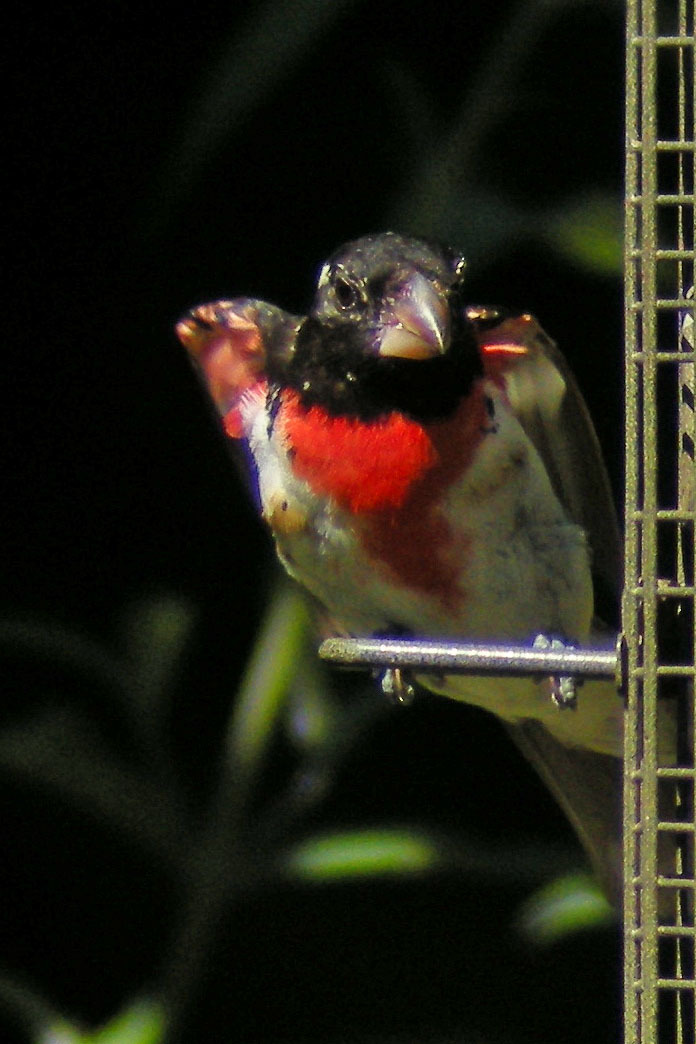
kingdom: Animalia
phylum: Chordata
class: Aves
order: Passeriformes
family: Cardinalidae
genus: Pheucticus
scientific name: Pheucticus ludovicianus
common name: Rose-breasted grosbeak
